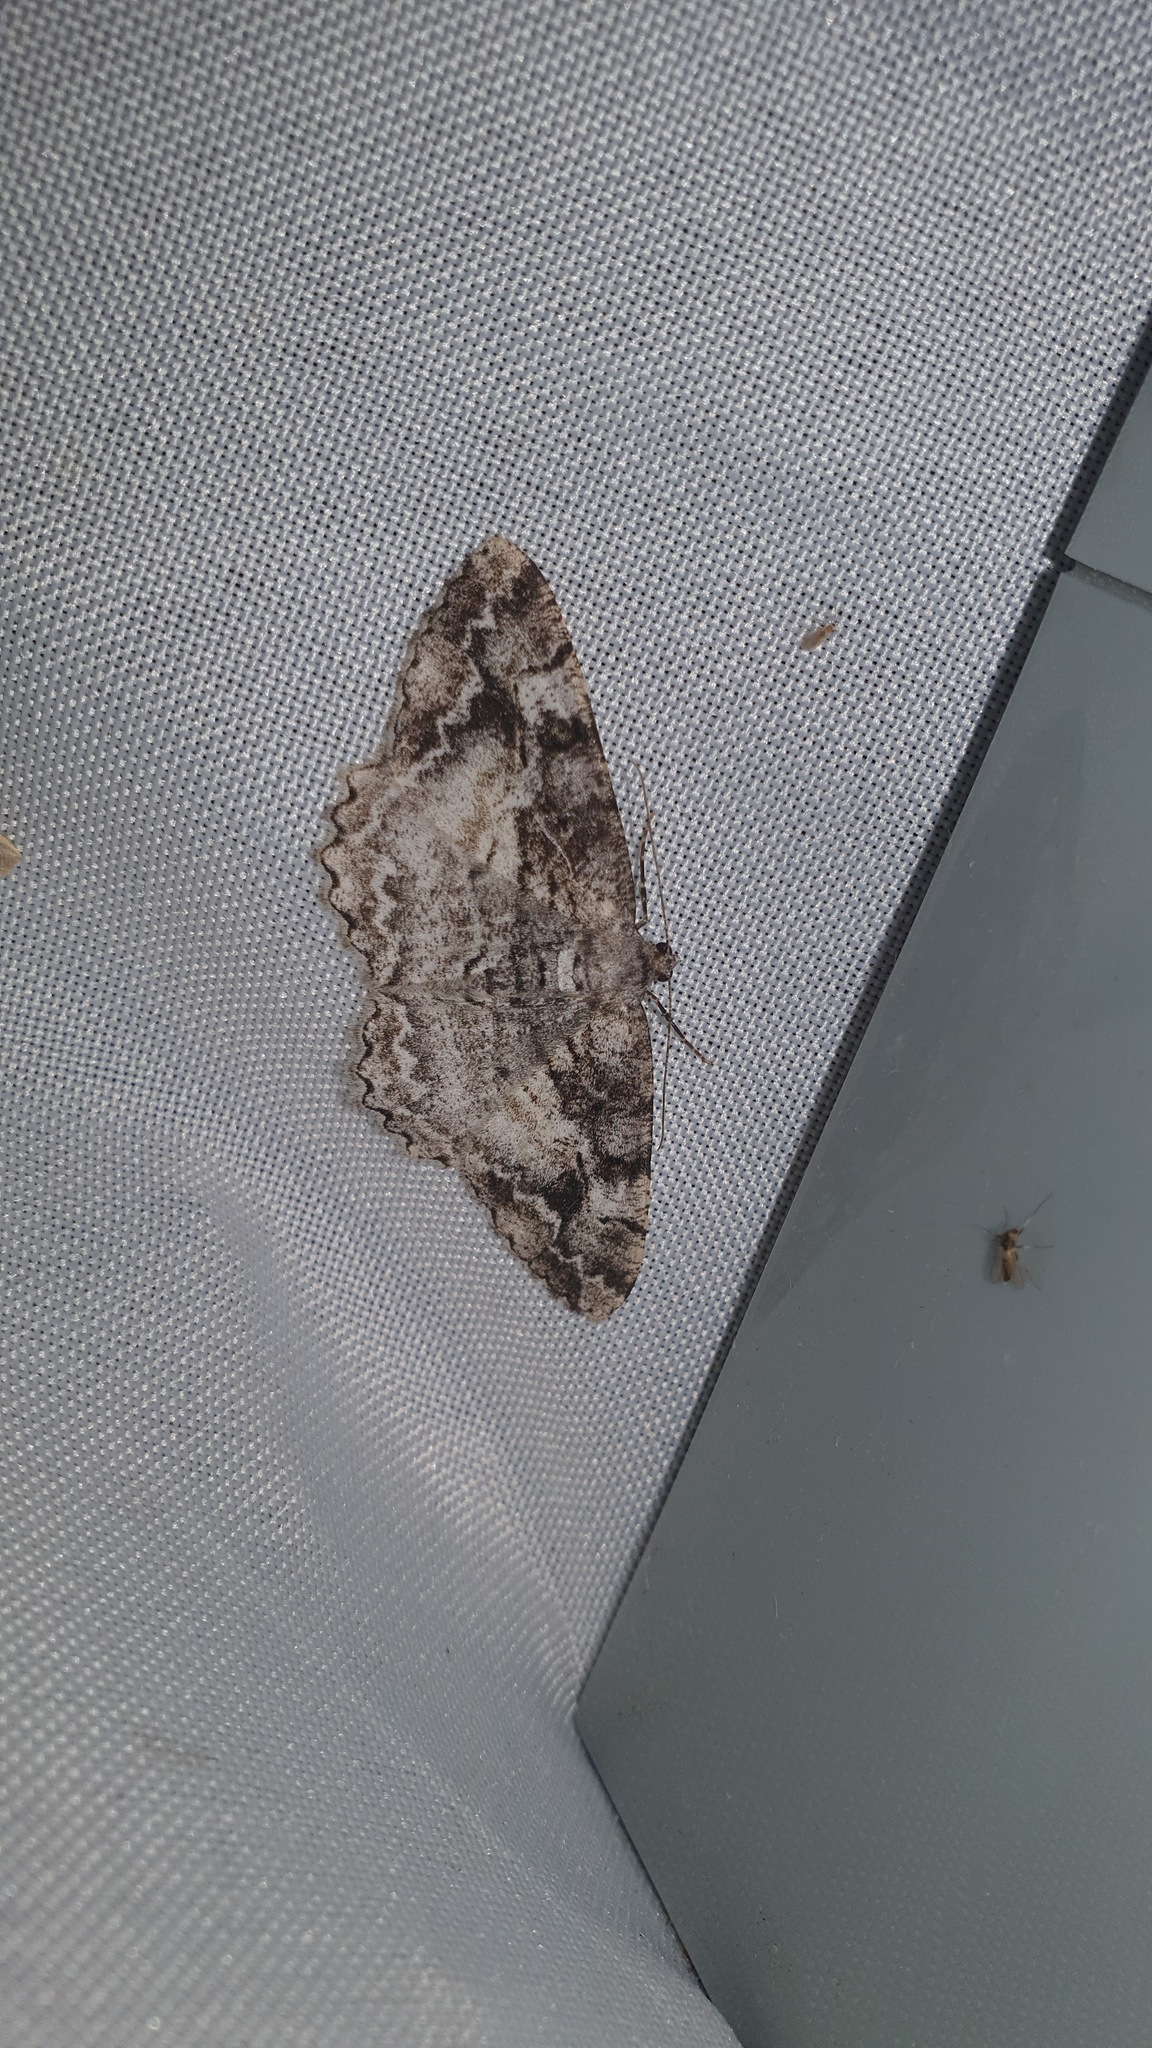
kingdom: Animalia
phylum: Arthropoda
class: Insecta
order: Lepidoptera
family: Geometridae
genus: Alcis
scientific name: Alcis repandata
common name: Mottled beauty
